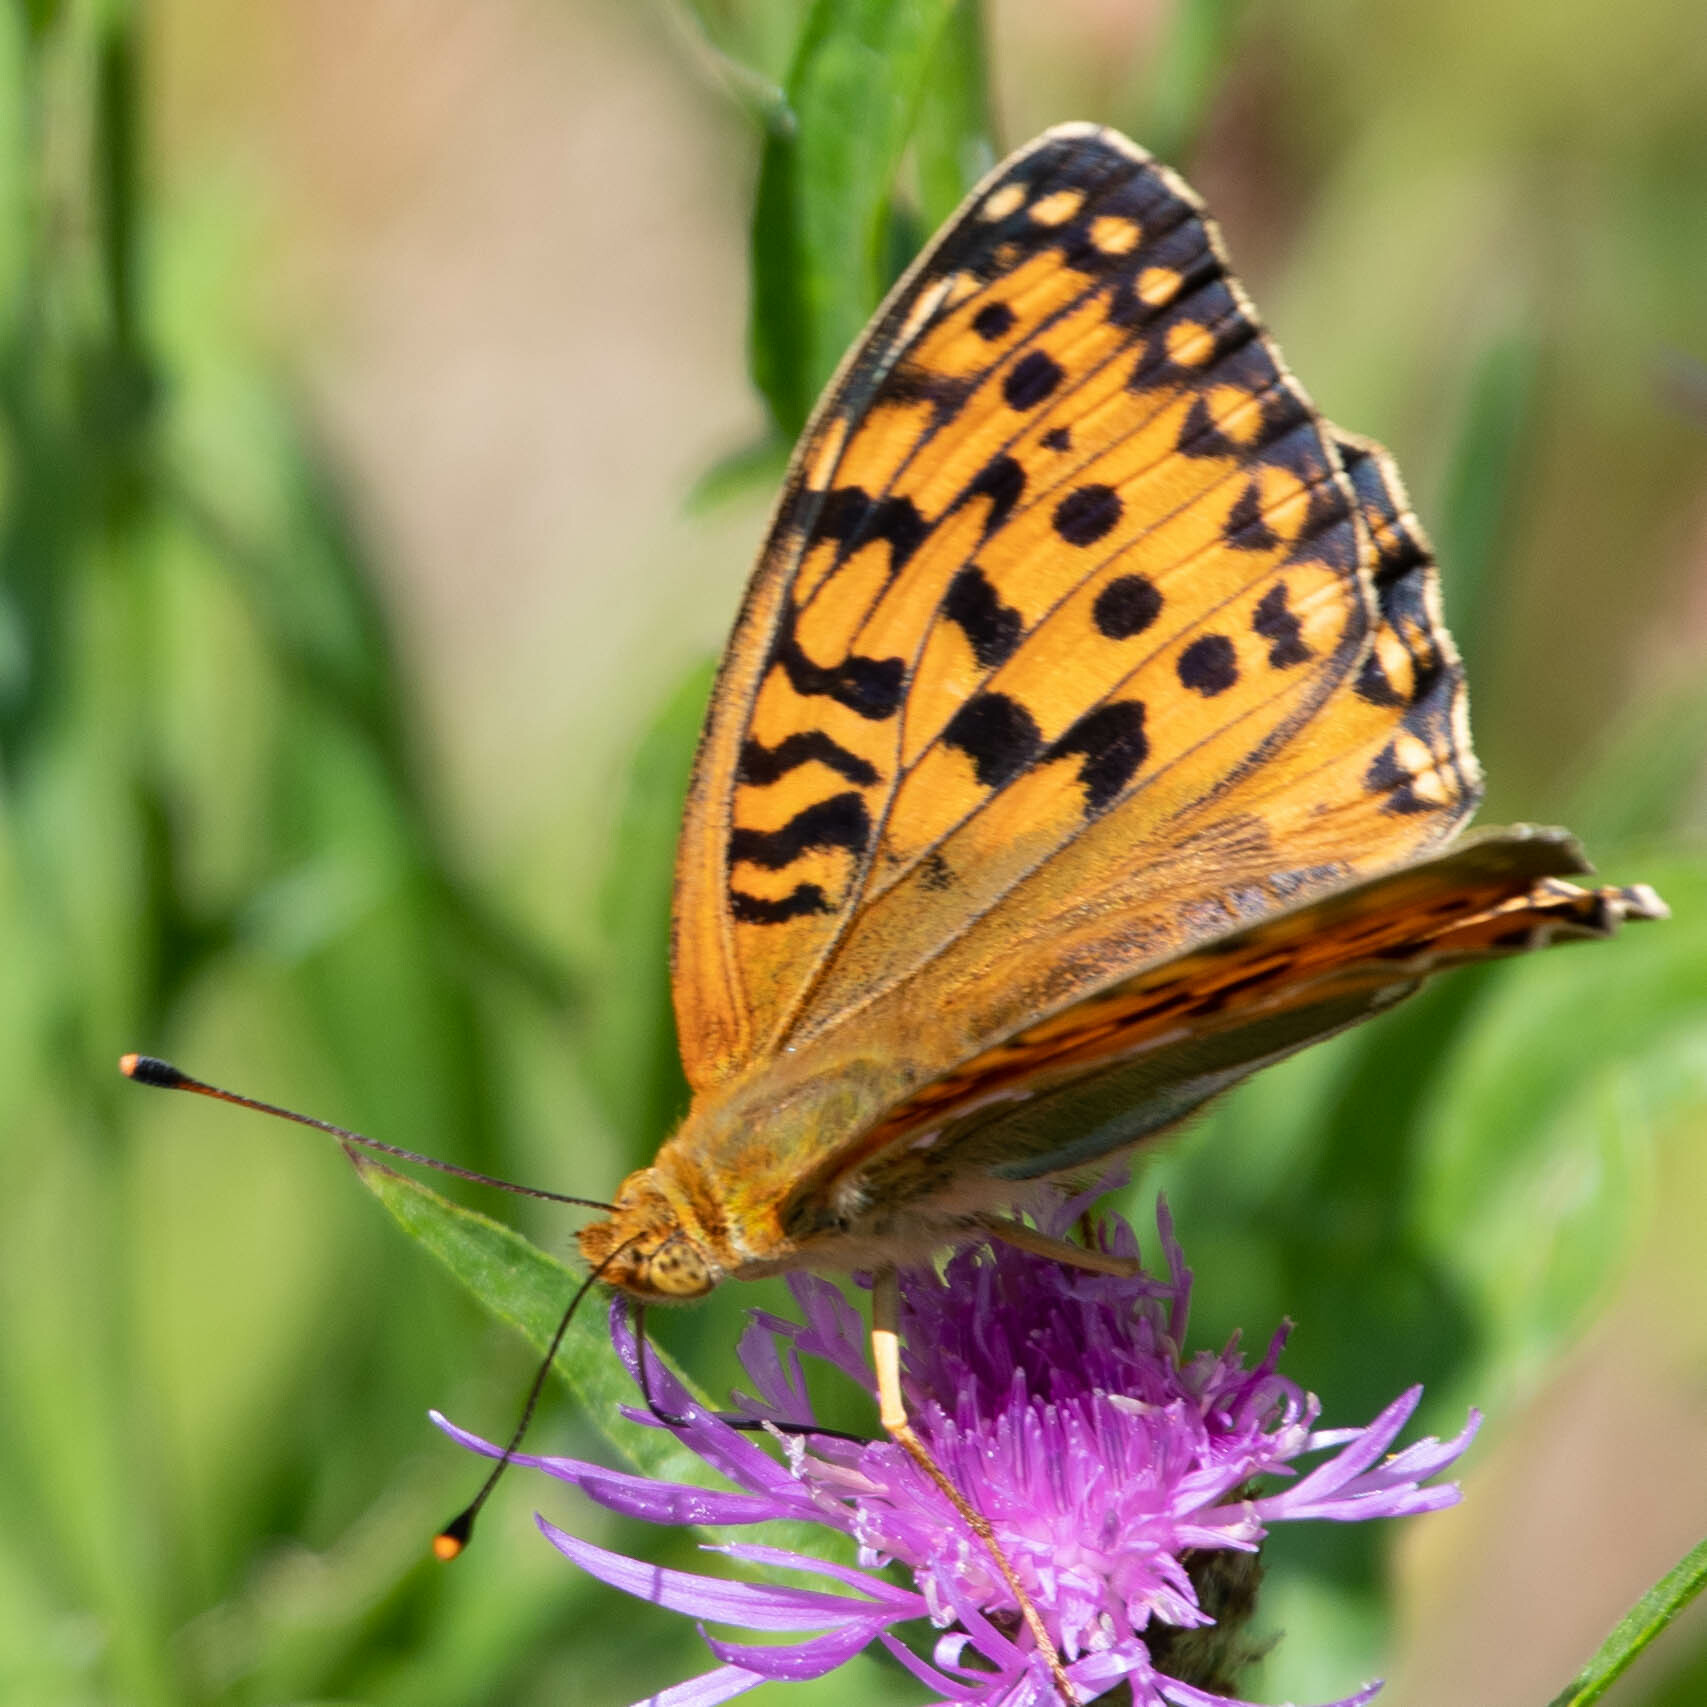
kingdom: Animalia
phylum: Arthropoda
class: Insecta
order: Lepidoptera
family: Nymphalidae
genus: Speyeria
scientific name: Speyeria aglaja
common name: Dark green fritillary
